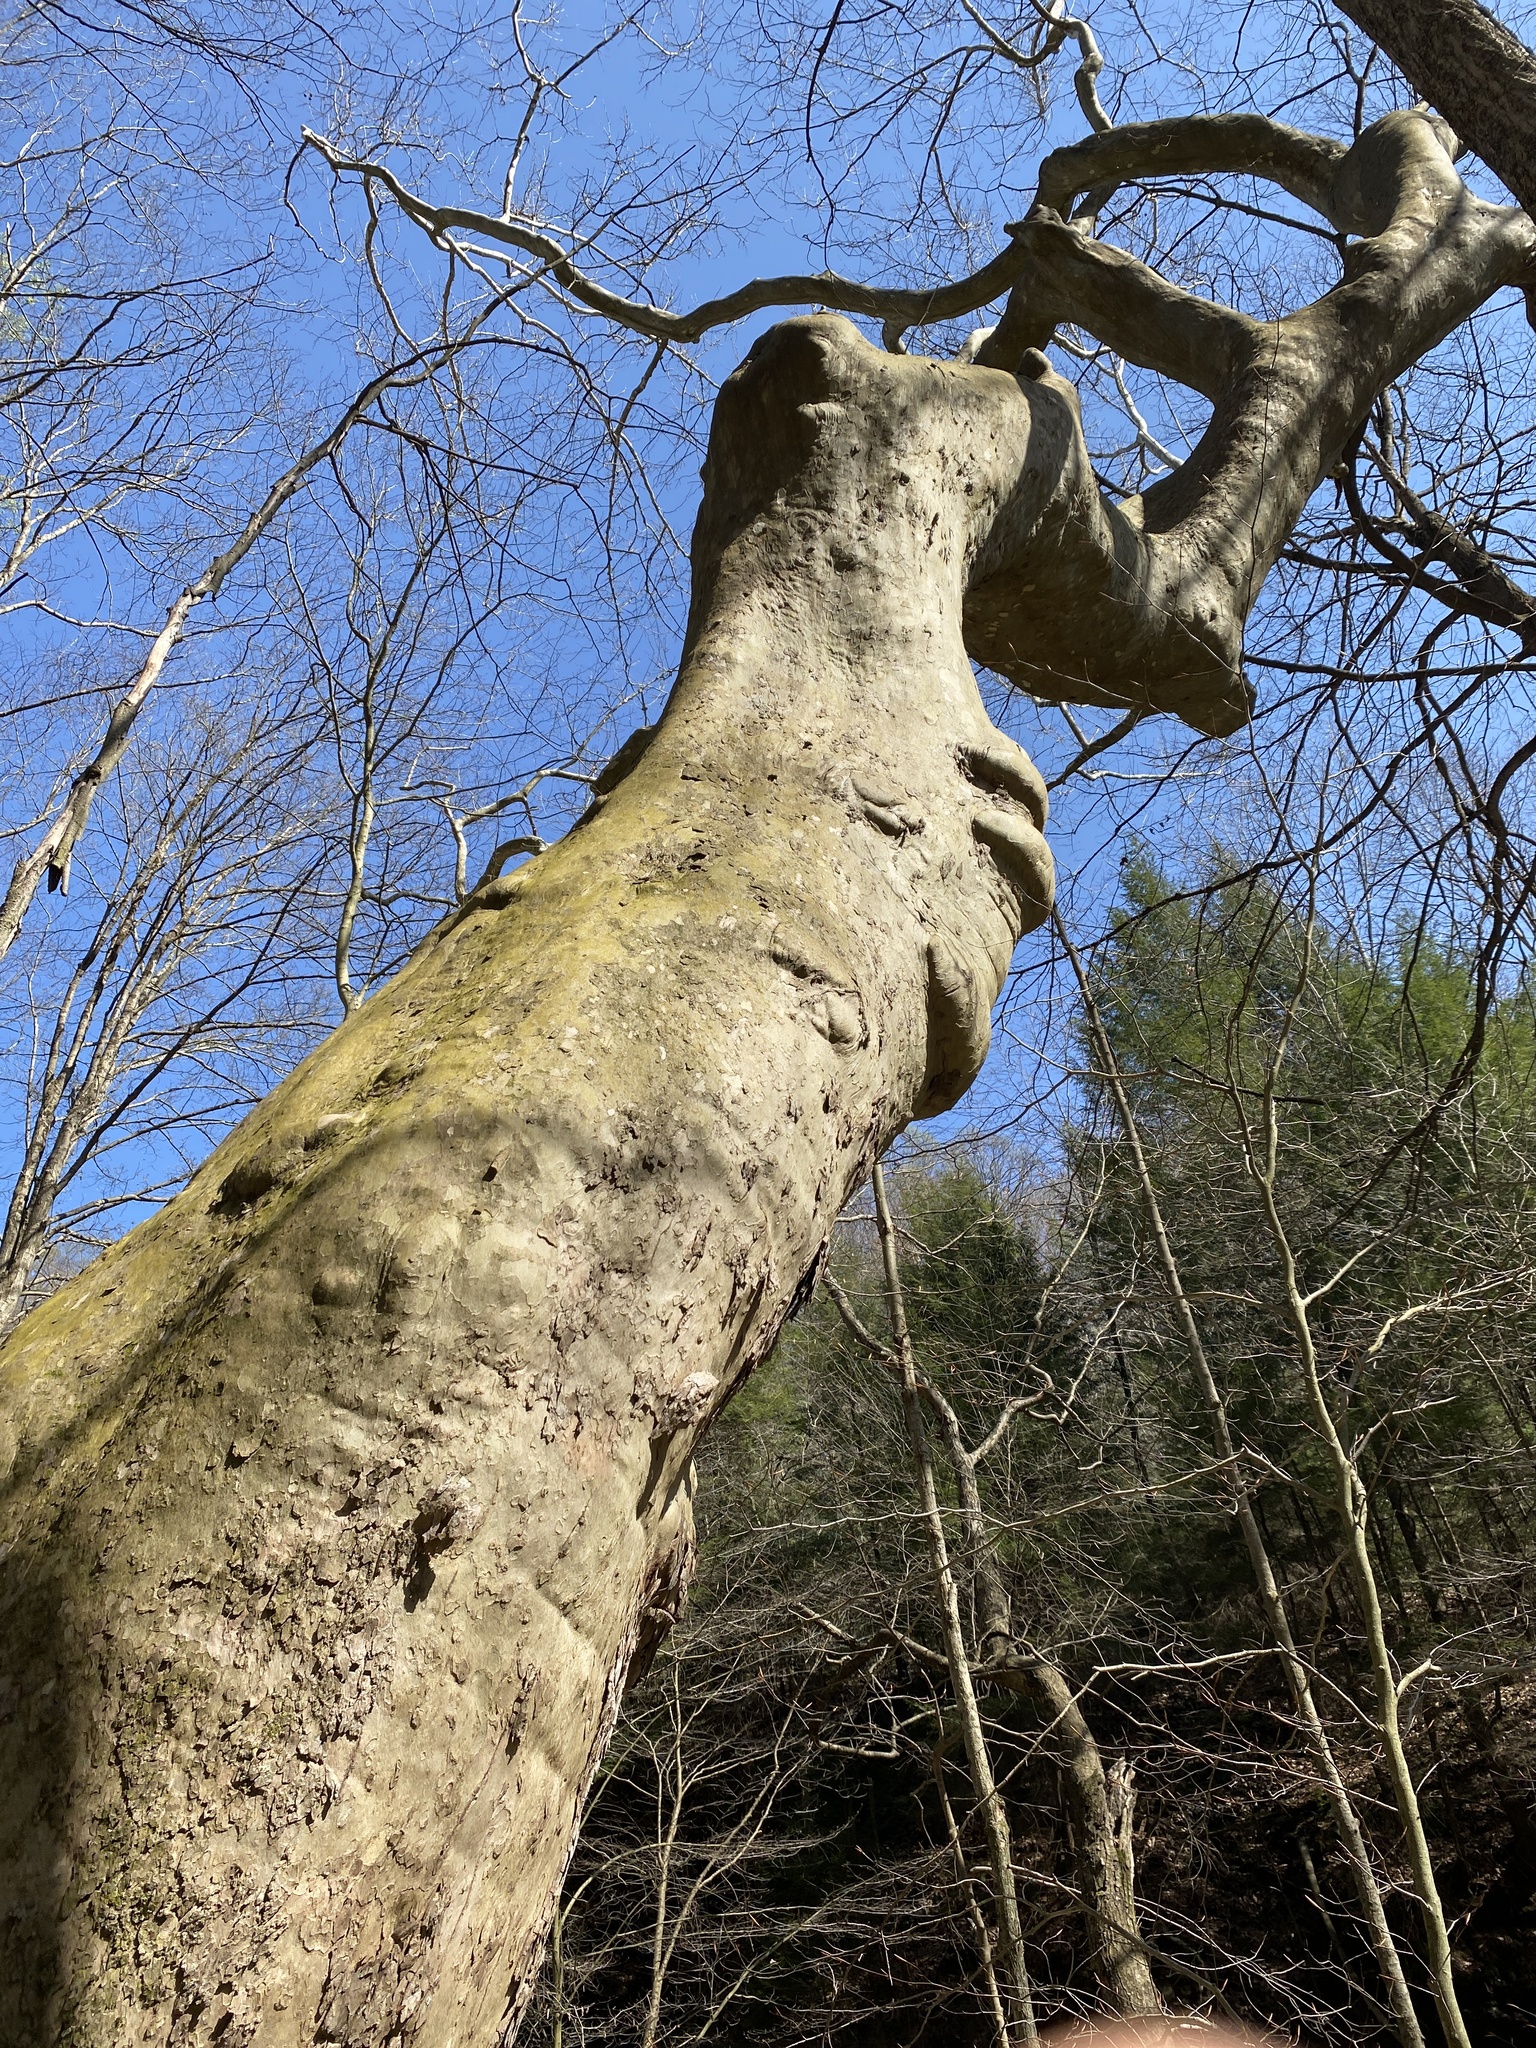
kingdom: Plantae
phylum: Tracheophyta
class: Magnoliopsida
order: Proteales
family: Platanaceae
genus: Platanus
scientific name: Platanus occidentalis
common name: American sycamore
